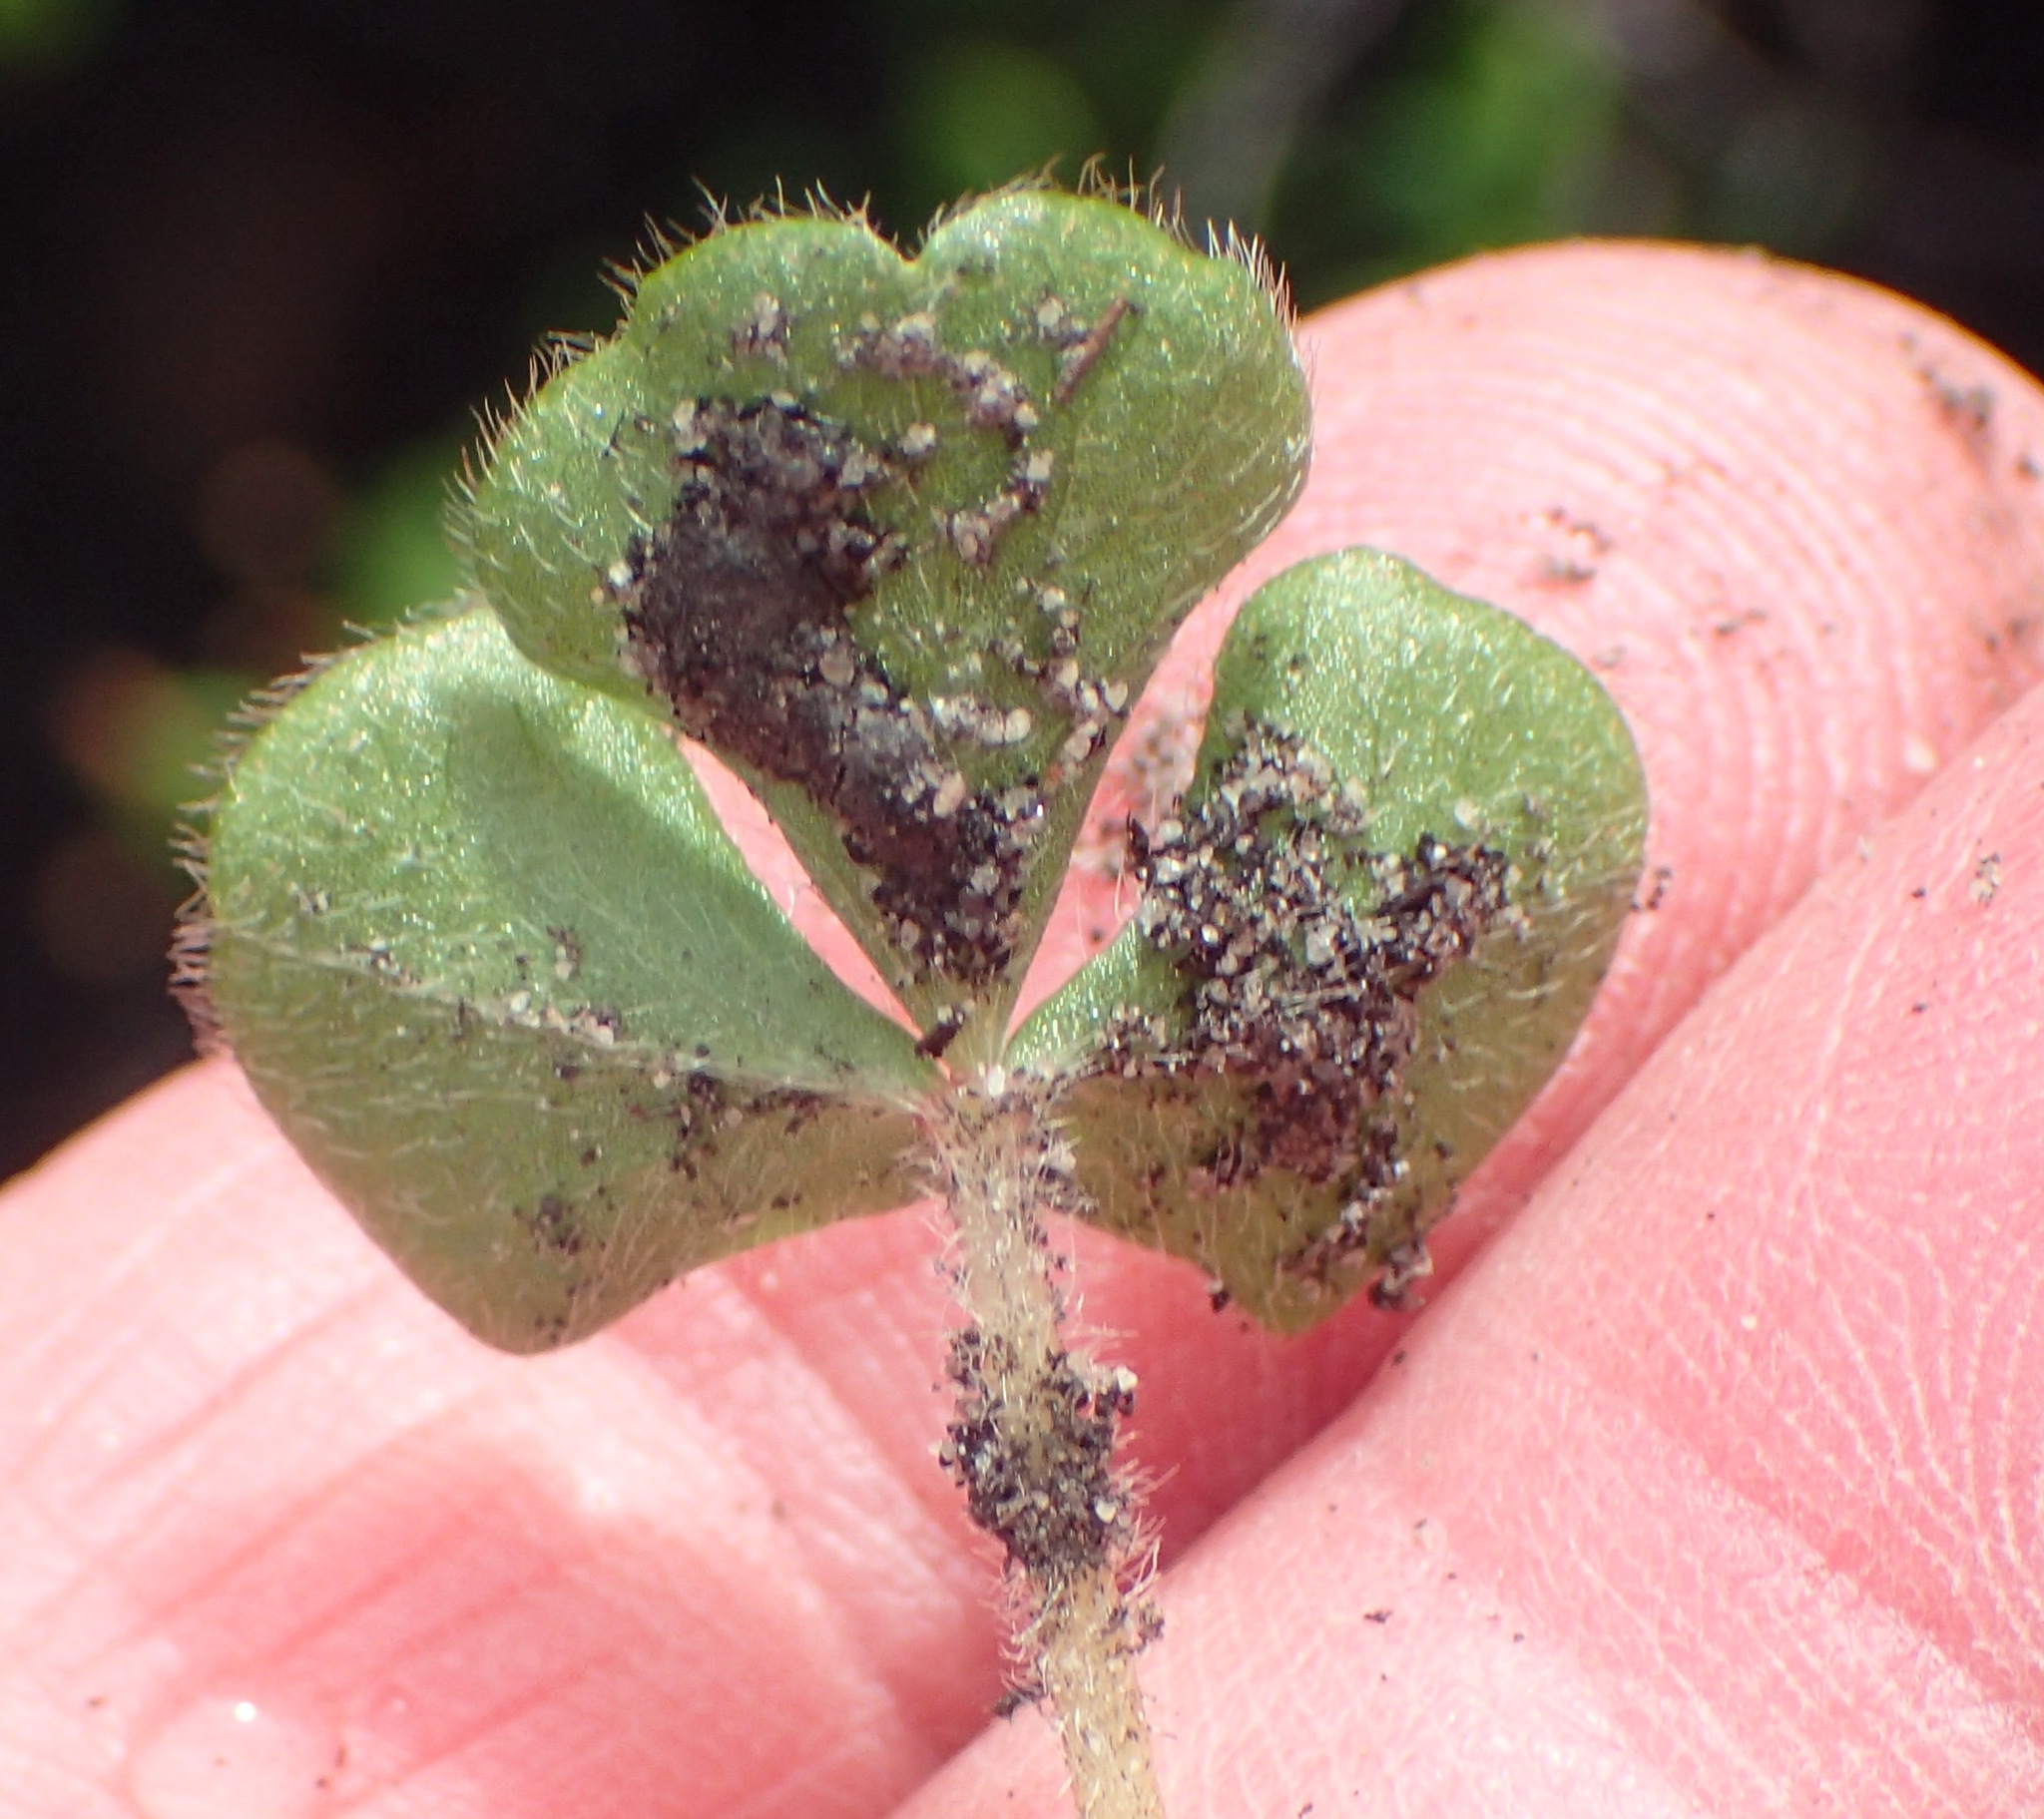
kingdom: Plantae
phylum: Tracheophyta
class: Magnoliopsida
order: Oxalidales
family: Oxalidaceae
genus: Oxalis
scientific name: Oxalis imbricata
